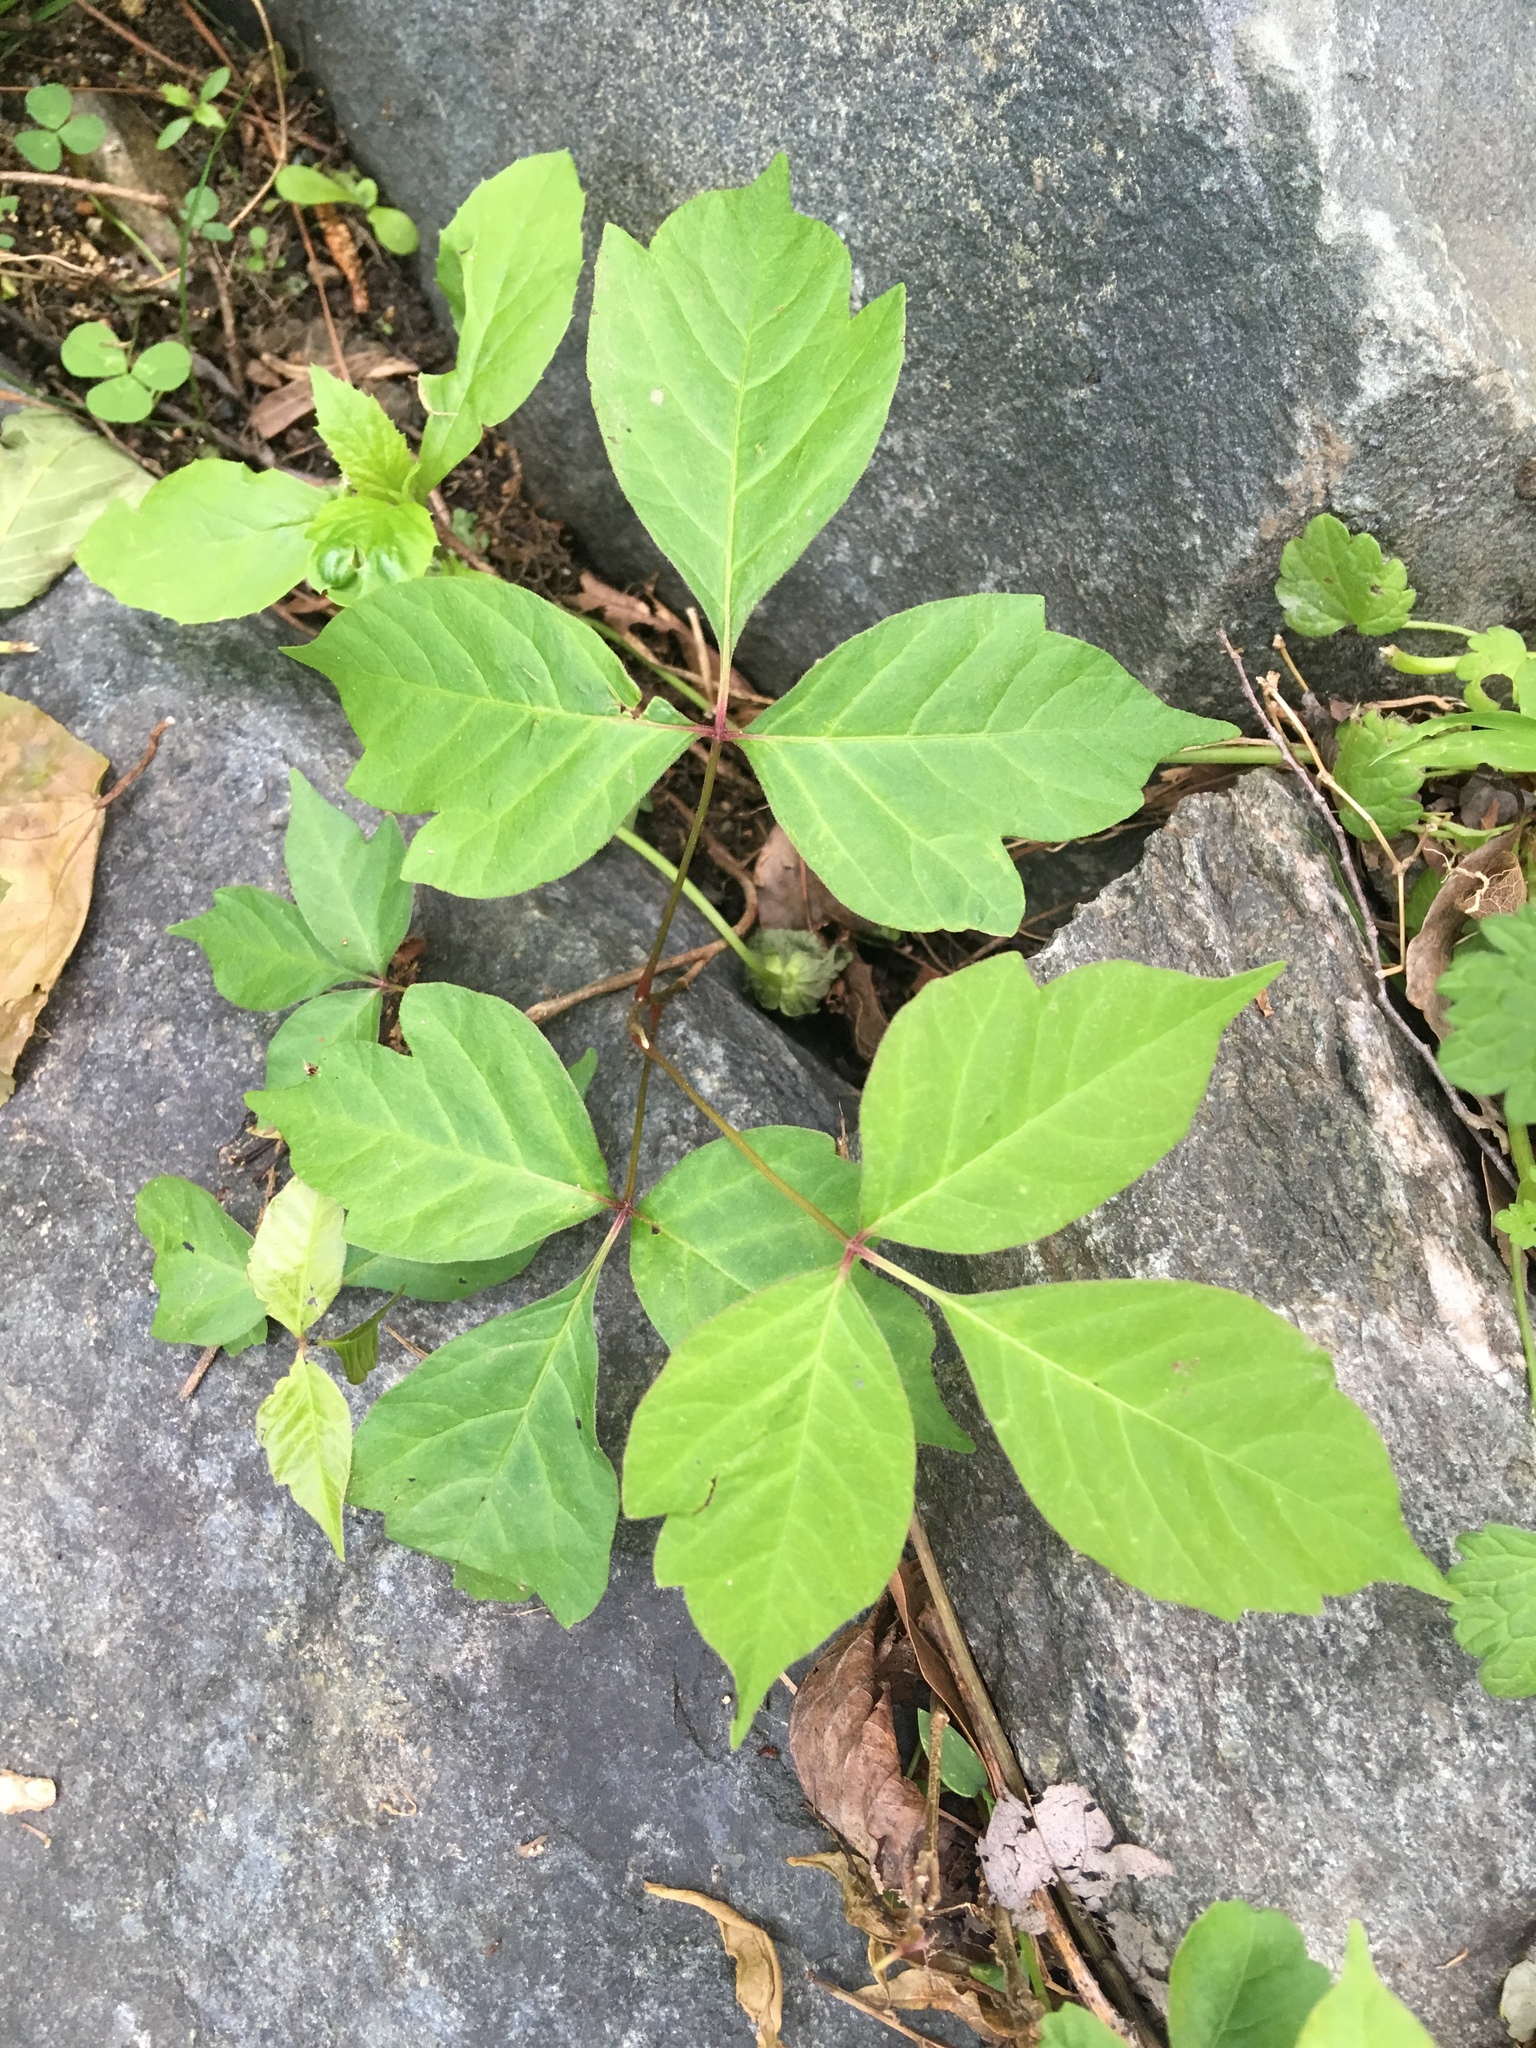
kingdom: Plantae
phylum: Tracheophyta
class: Magnoliopsida
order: Sapindales
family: Anacardiaceae
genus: Toxicodendron
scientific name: Toxicodendron radicans
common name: Poison ivy
